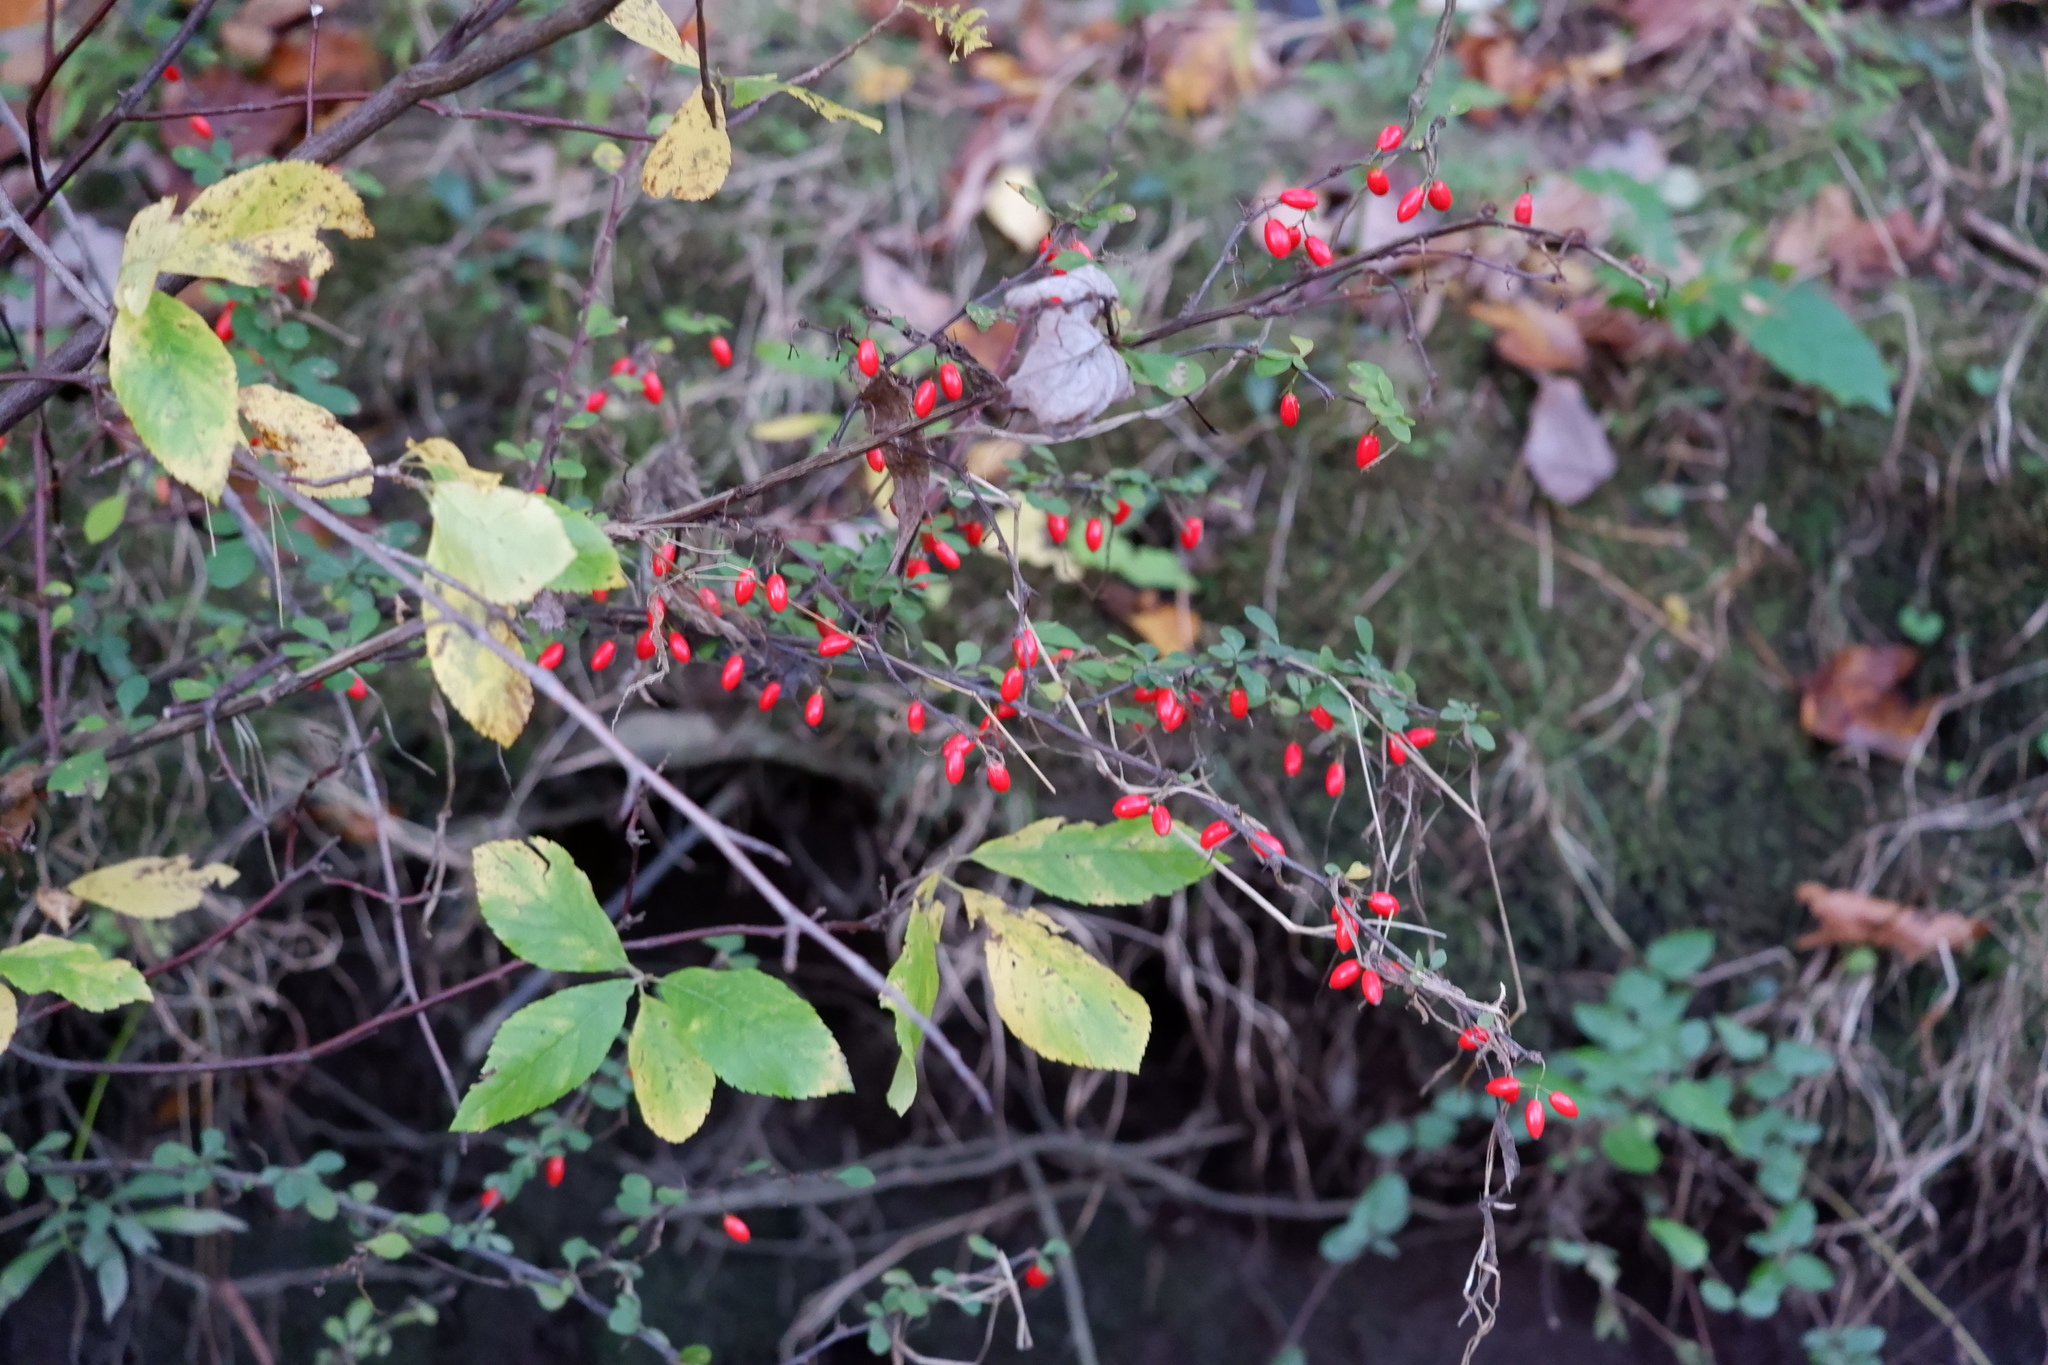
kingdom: Plantae
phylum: Tracheophyta
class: Magnoliopsida
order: Ranunculales
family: Berberidaceae
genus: Berberis
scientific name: Berberis thunbergii
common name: Japanese barberry
